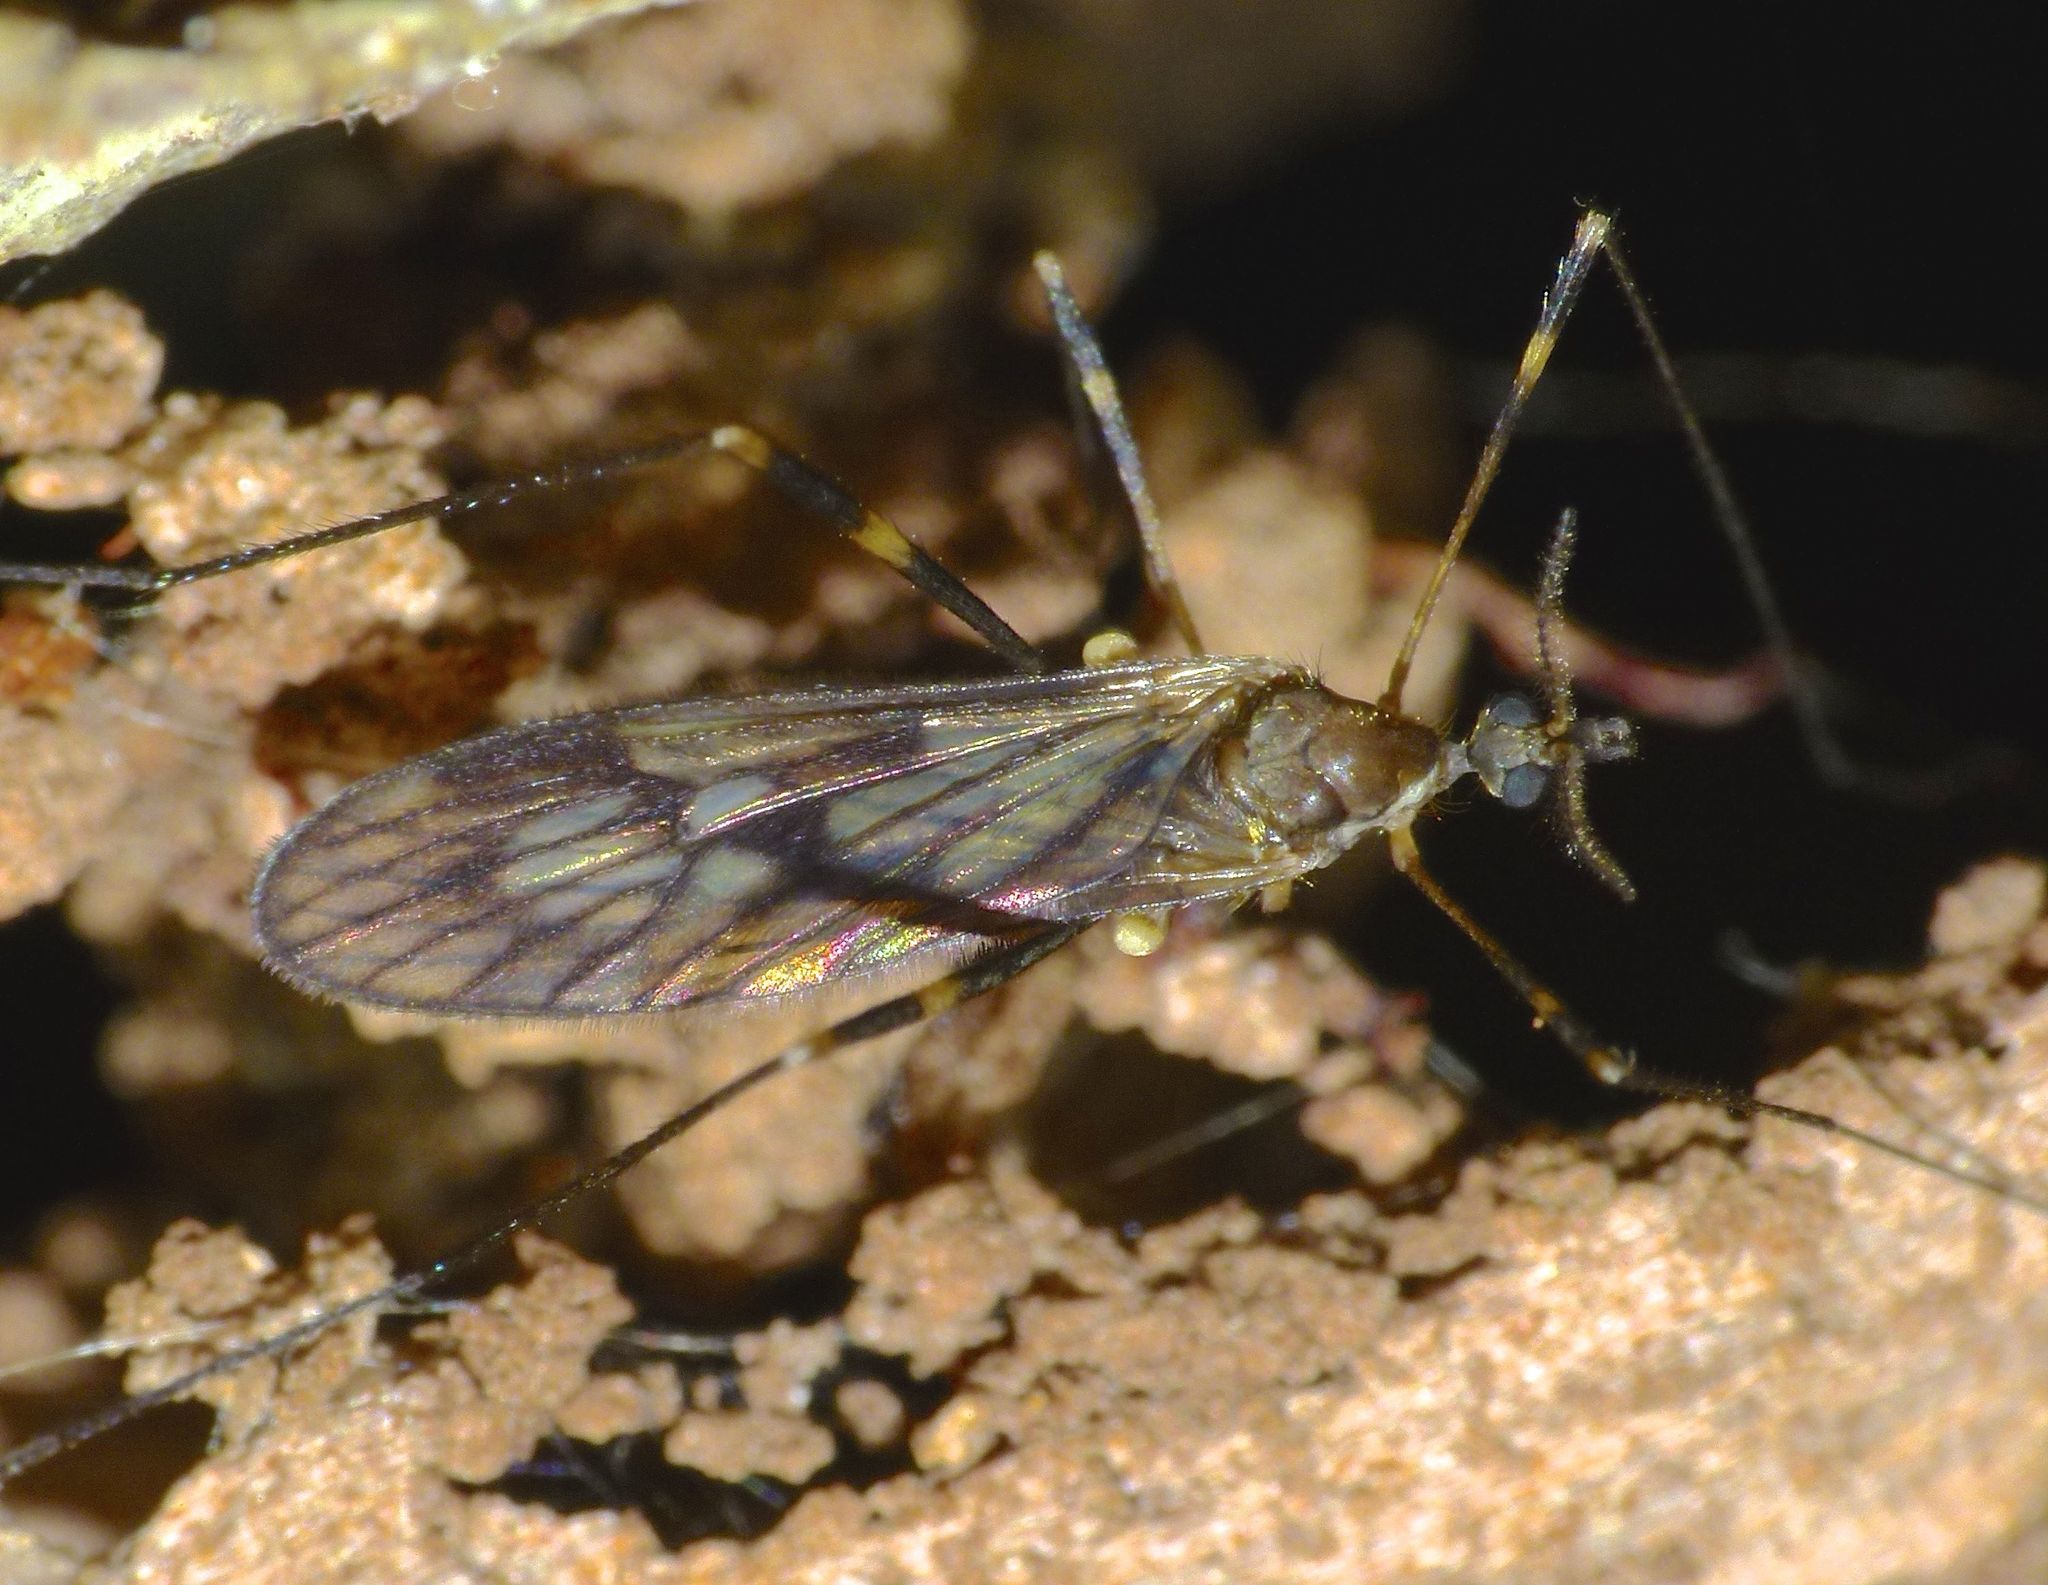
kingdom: Animalia
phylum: Arthropoda
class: Insecta
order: Diptera
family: Limoniidae
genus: Amphineurus
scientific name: Amphineurus fatuus
